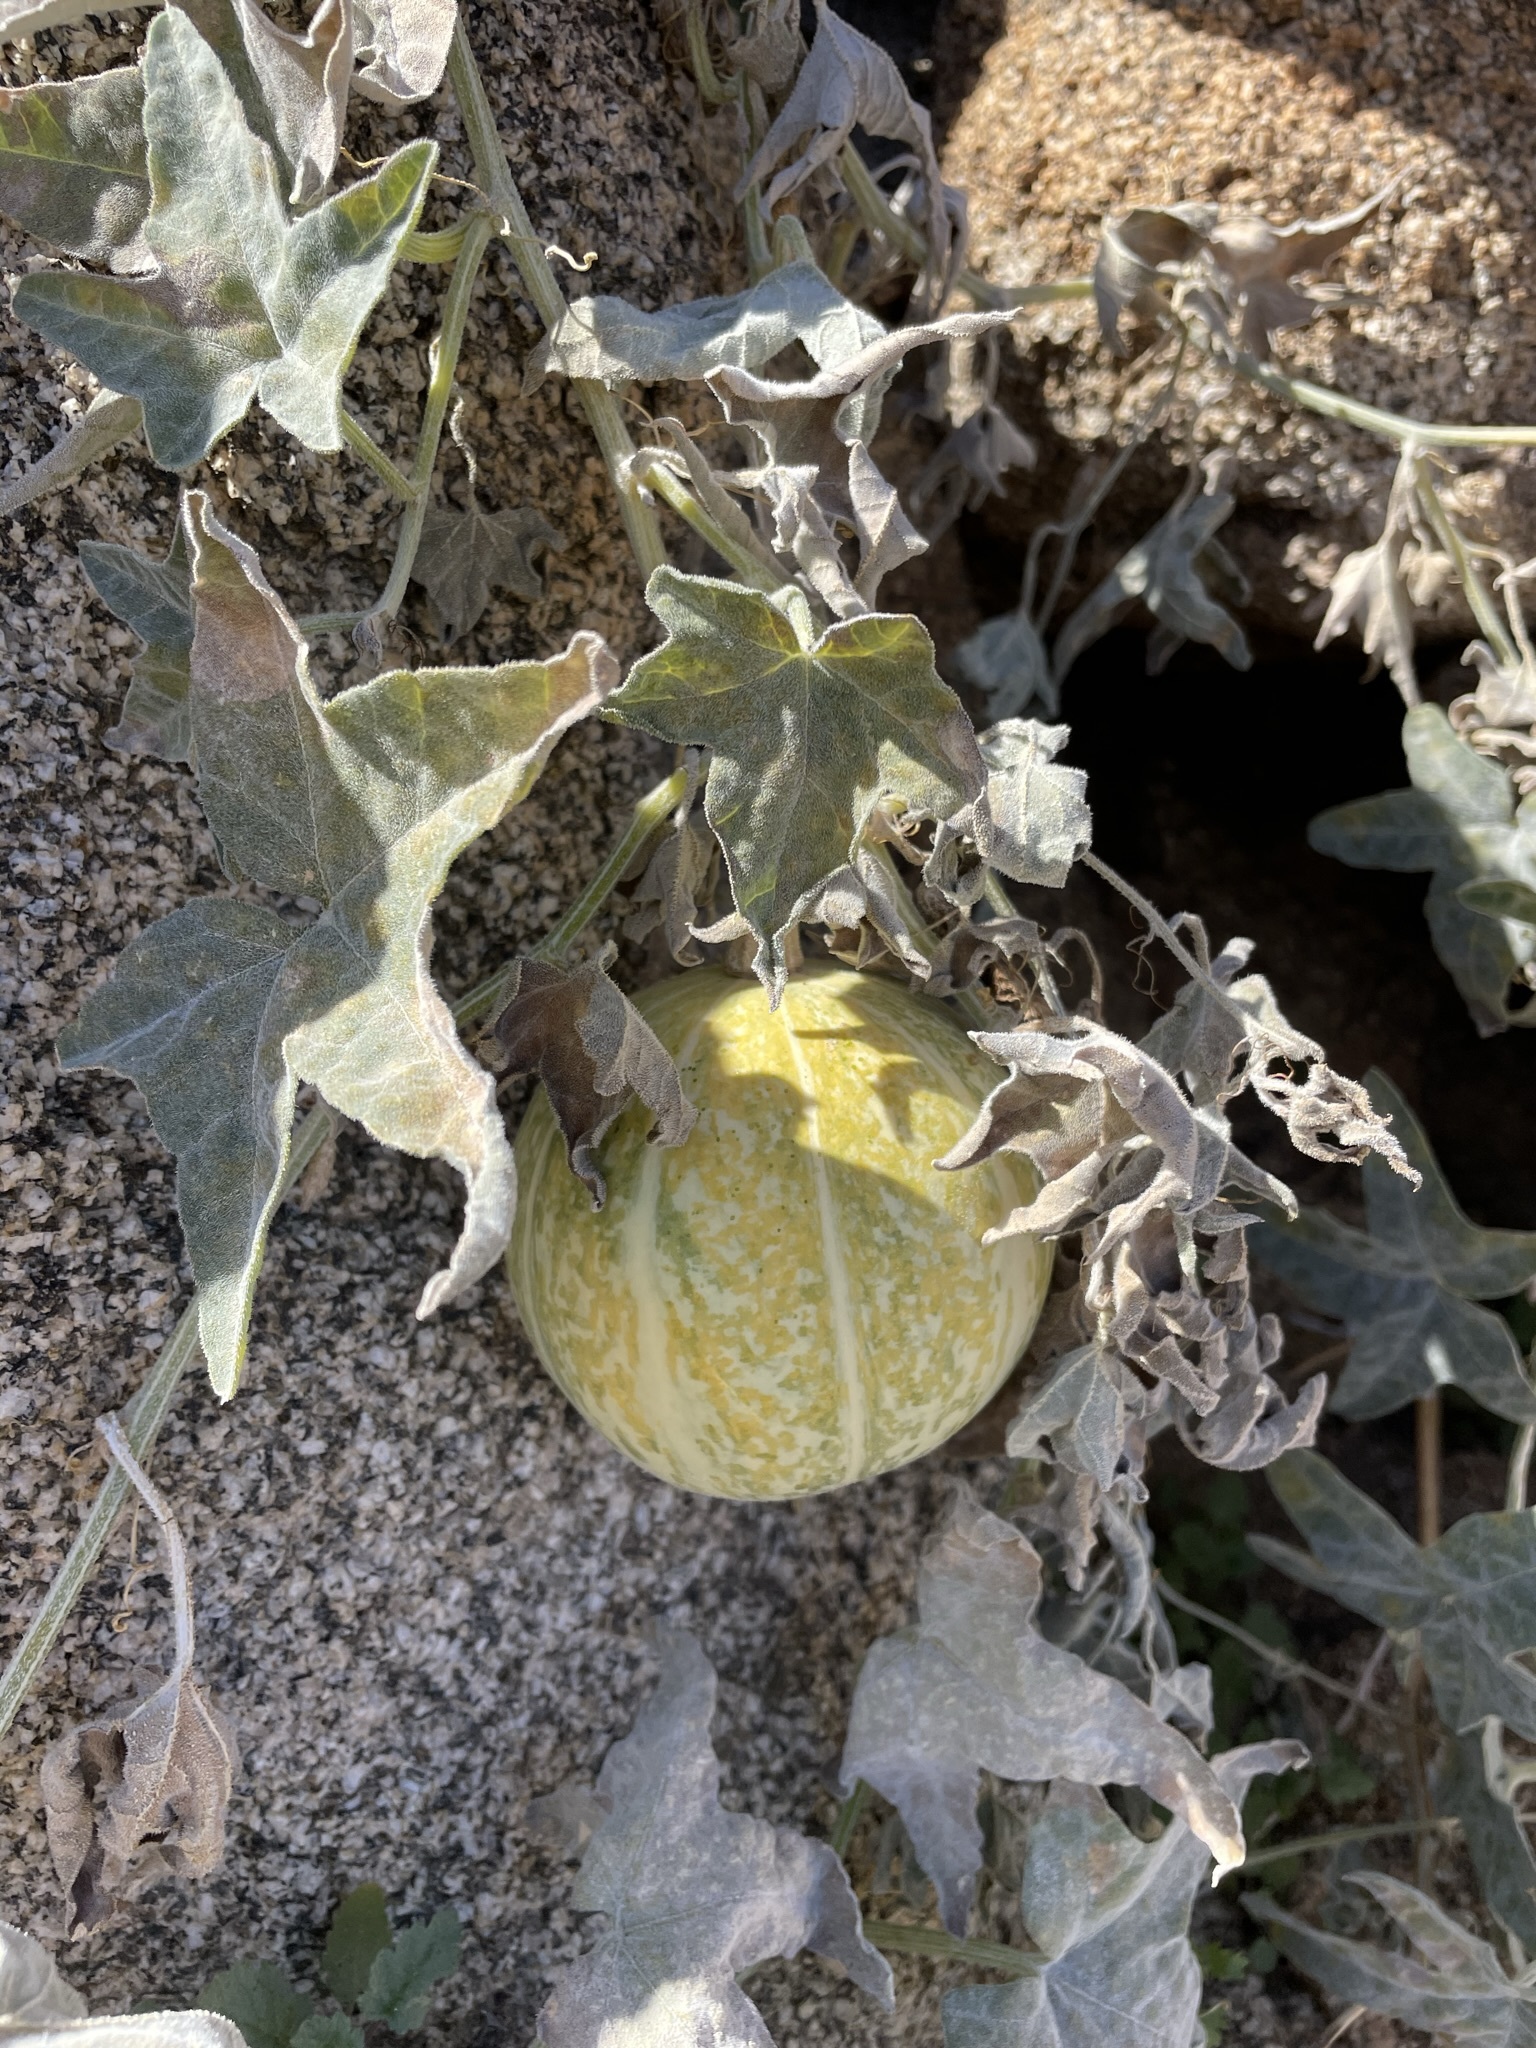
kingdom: Plantae
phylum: Tracheophyta
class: Magnoliopsida
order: Cucurbitales
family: Cucurbitaceae
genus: Cucurbita
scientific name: Cucurbita palmata
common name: Coyote-melon
